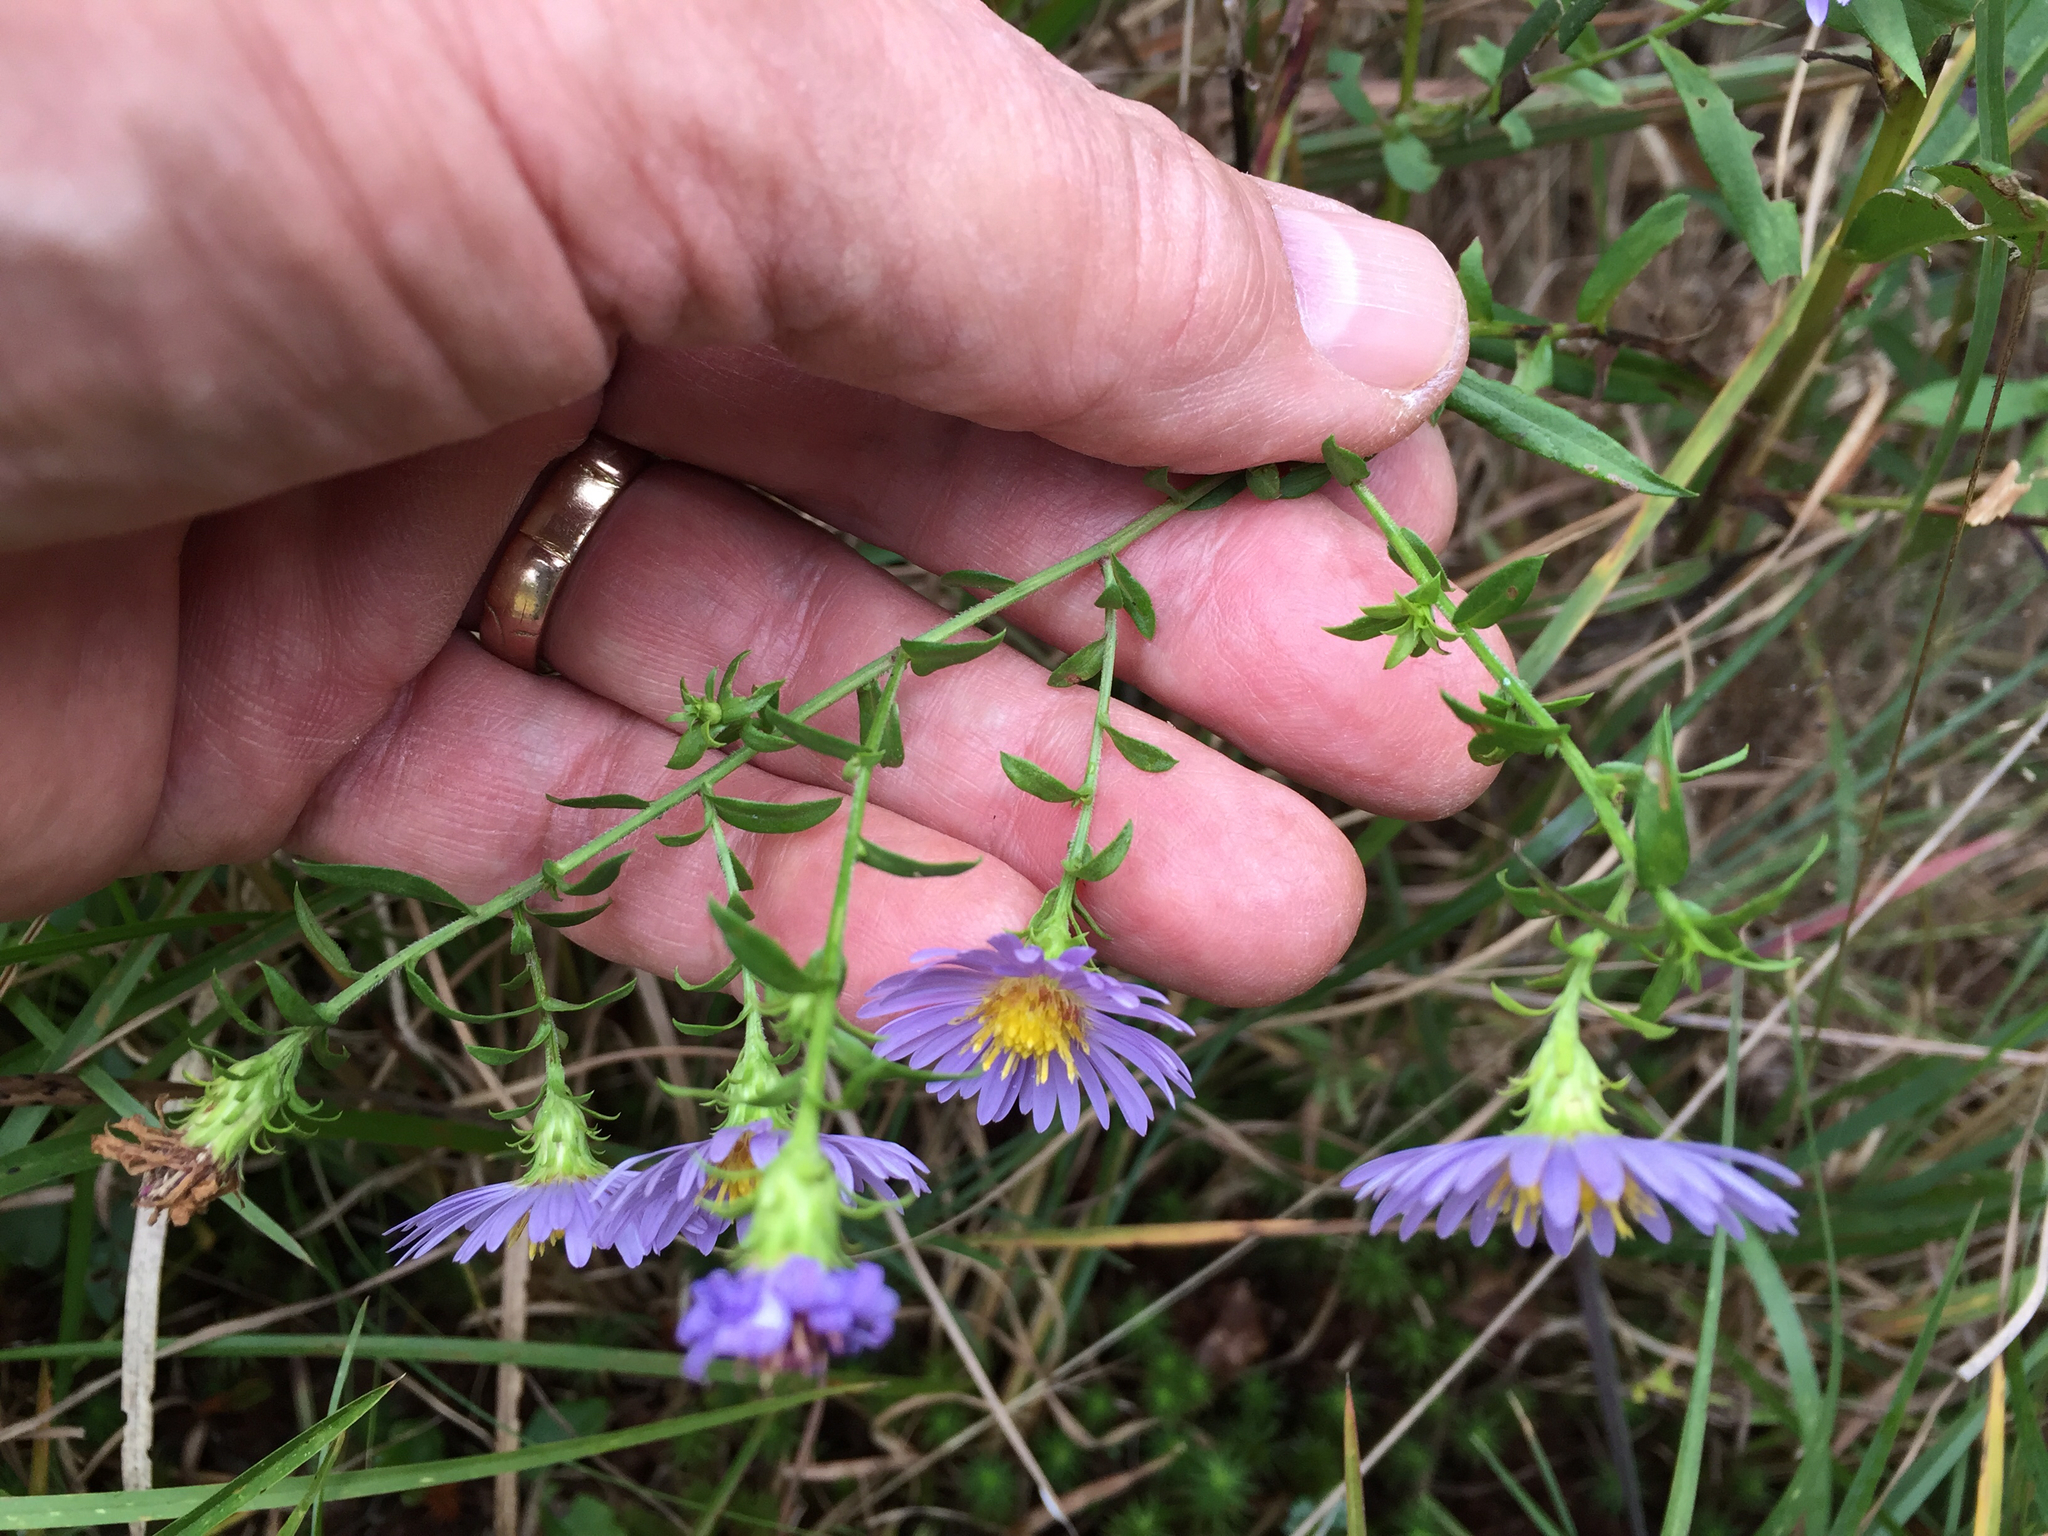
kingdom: Plantae
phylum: Tracheophyta
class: Magnoliopsida
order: Asterales
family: Asteraceae
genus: Symphyotrichum
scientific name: Symphyotrichum novi-belgii
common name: Michaelmas daisy
